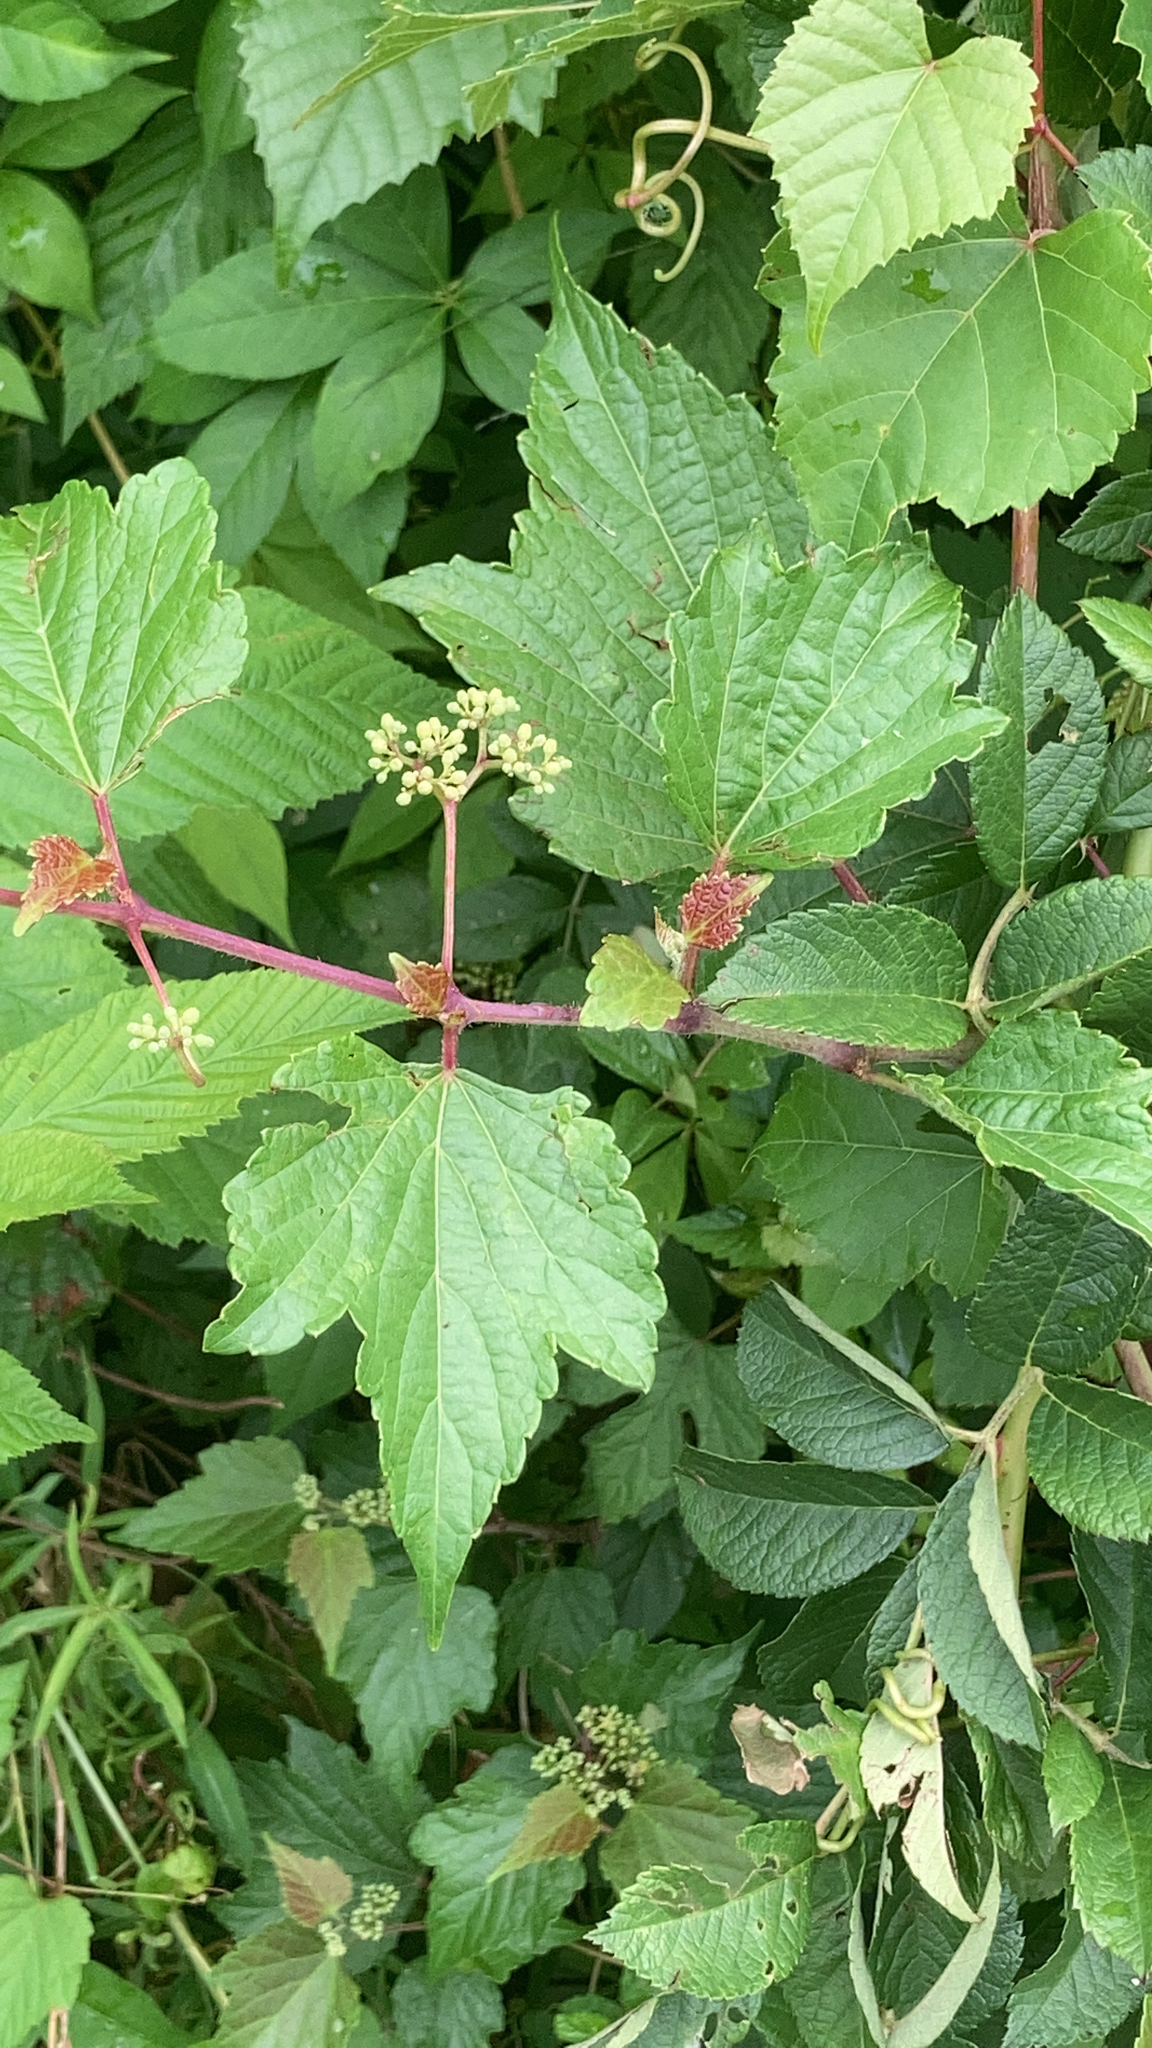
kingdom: Plantae
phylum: Tracheophyta
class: Magnoliopsida
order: Vitales
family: Vitaceae
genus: Ampelopsis
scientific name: Ampelopsis glandulosa
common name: Amur peppervine
